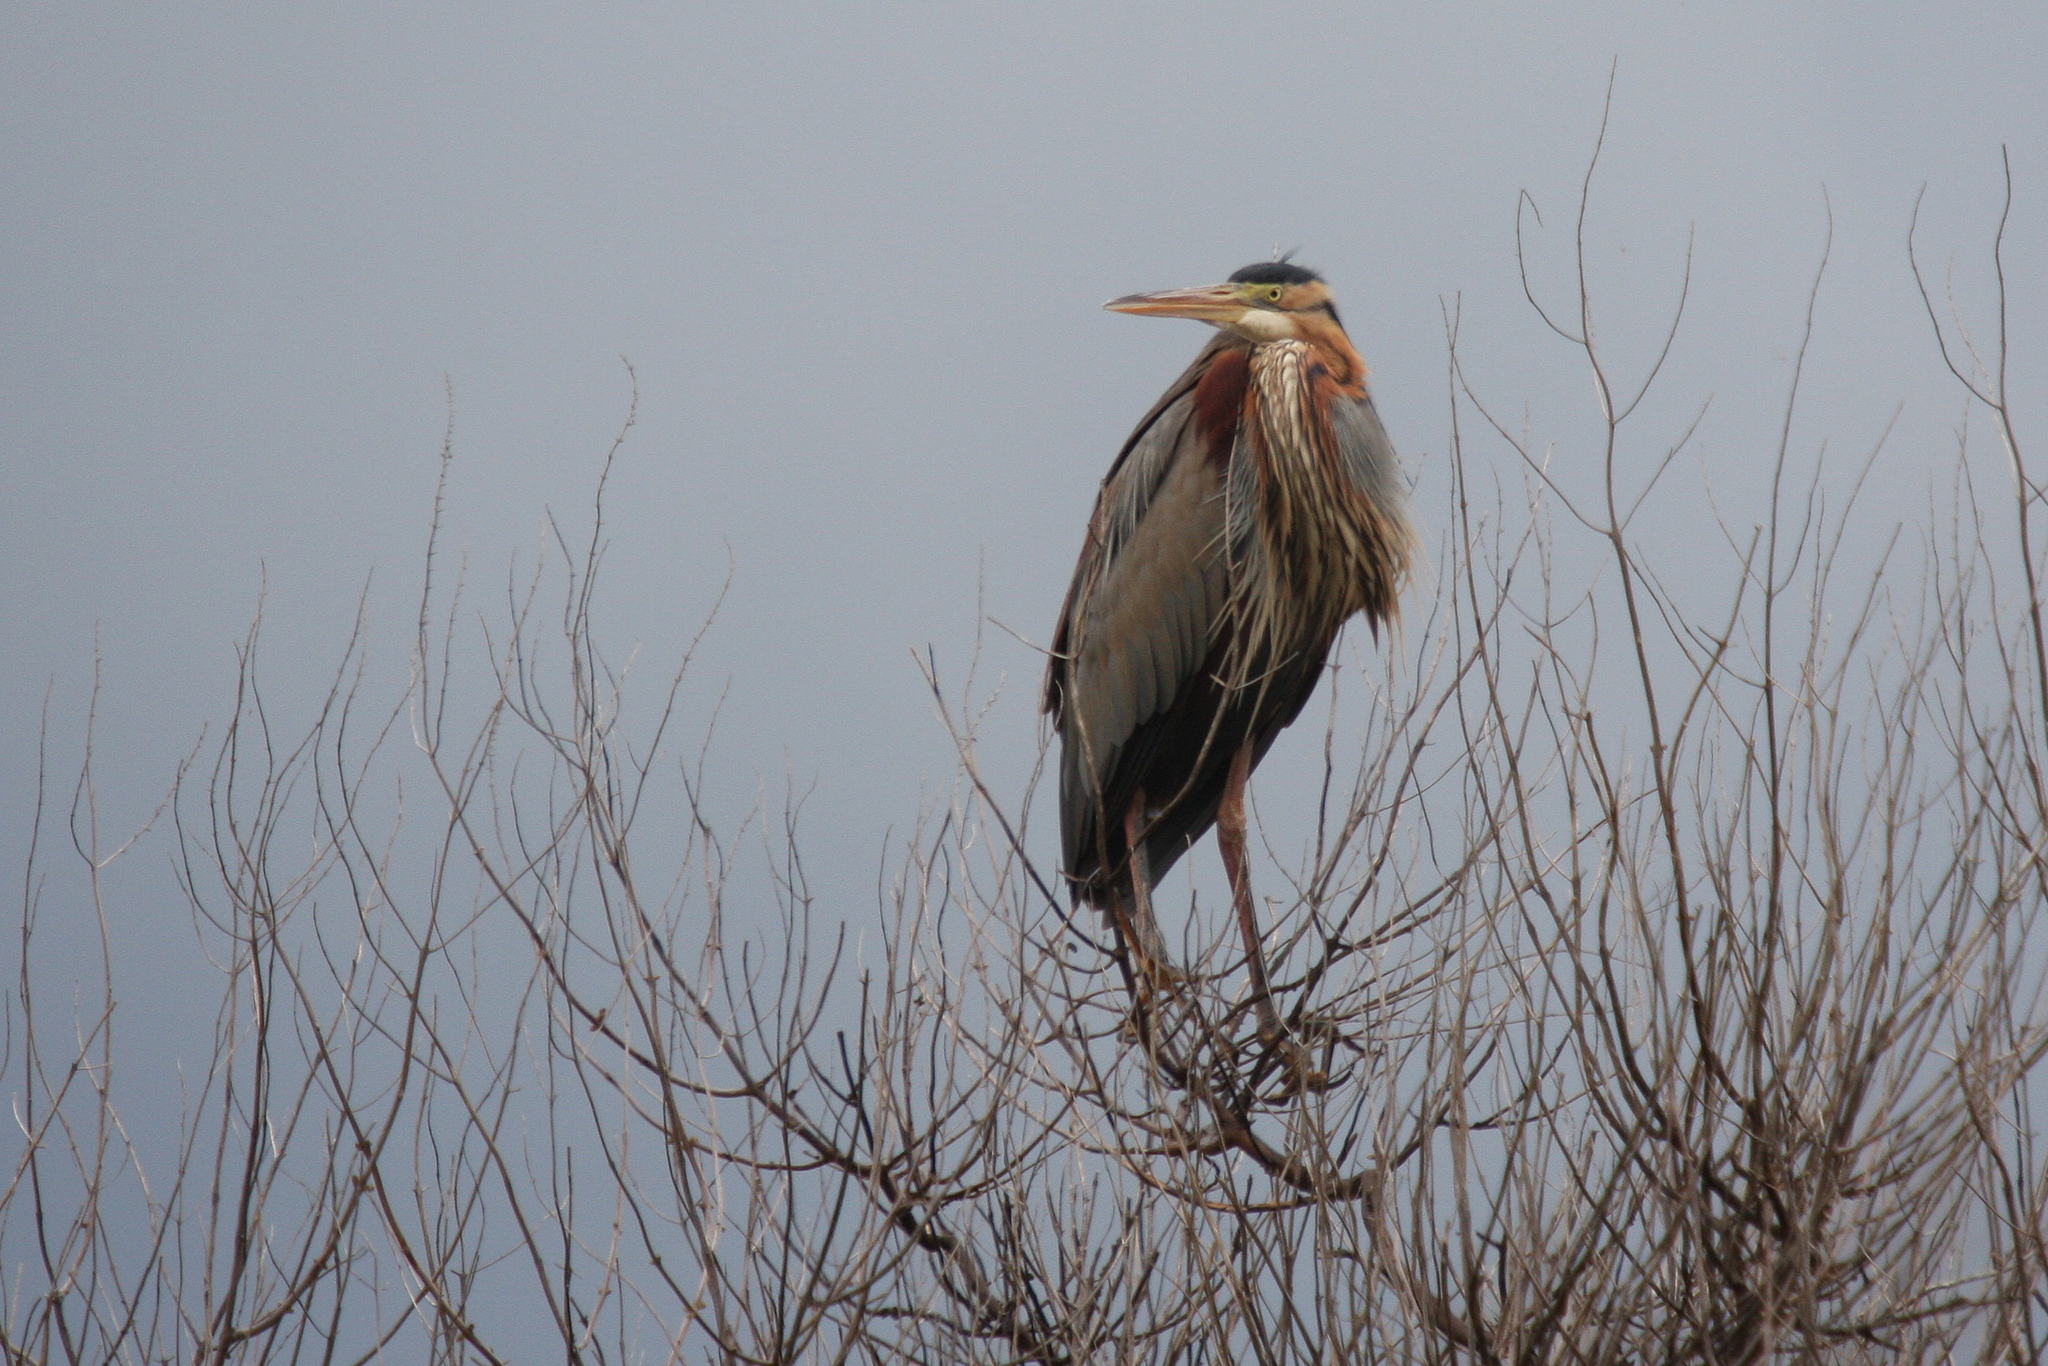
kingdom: Animalia
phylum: Chordata
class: Aves
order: Pelecaniformes
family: Ardeidae
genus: Ardea
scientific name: Ardea purpurea
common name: Purple heron
